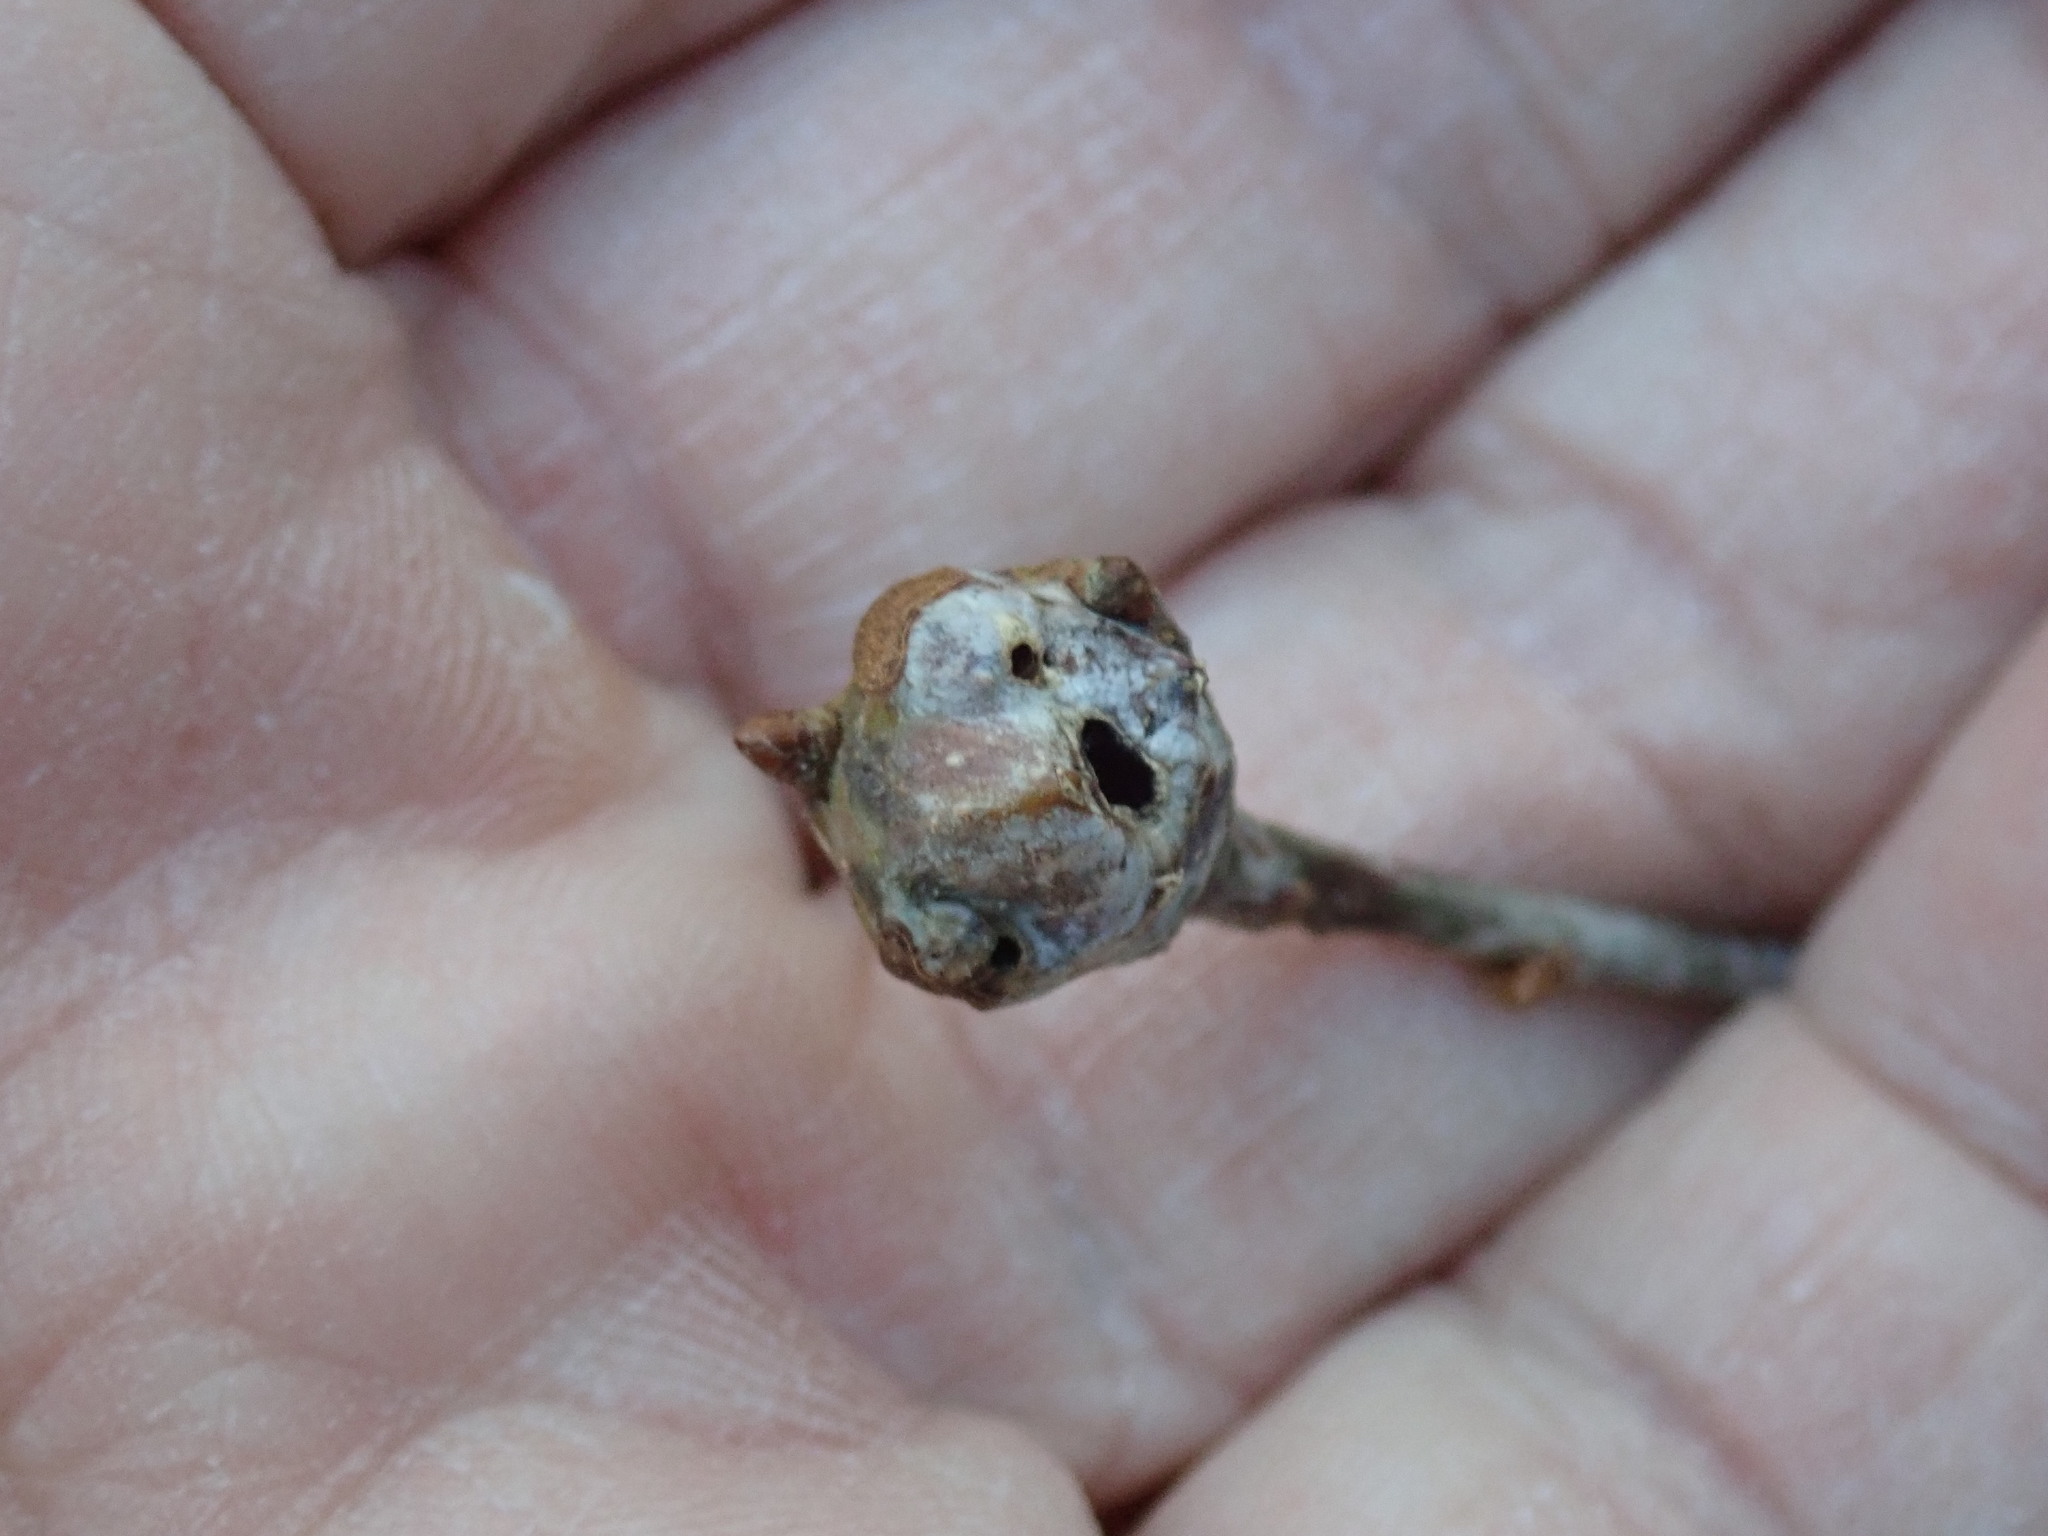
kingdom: Animalia
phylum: Arthropoda
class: Insecta
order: Hymenoptera
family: Cynipidae
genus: Callirhytis
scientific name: Callirhytis clavula
